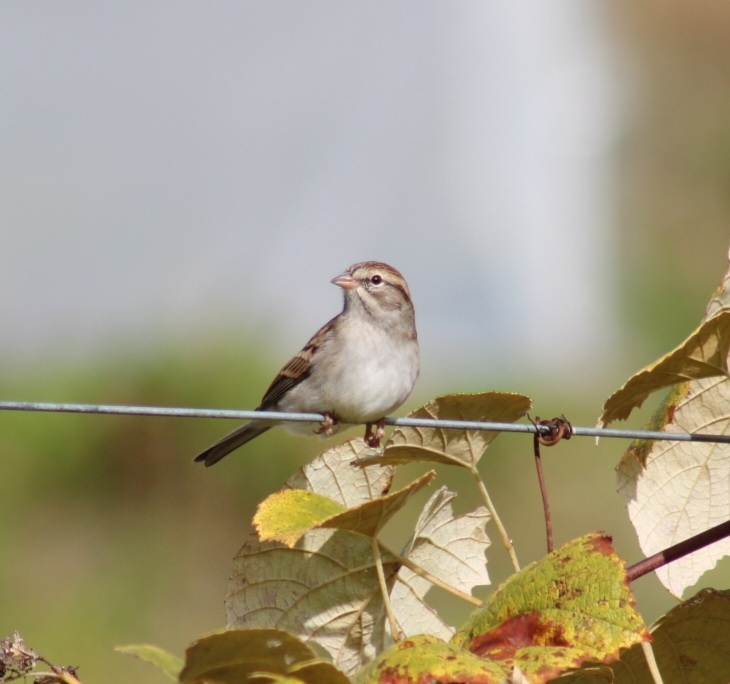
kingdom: Animalia
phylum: Chordata
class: Aves
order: Passeriformes
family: Passerellidae
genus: Spizella
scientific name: Spizella passerina
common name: Chipping sparrow
